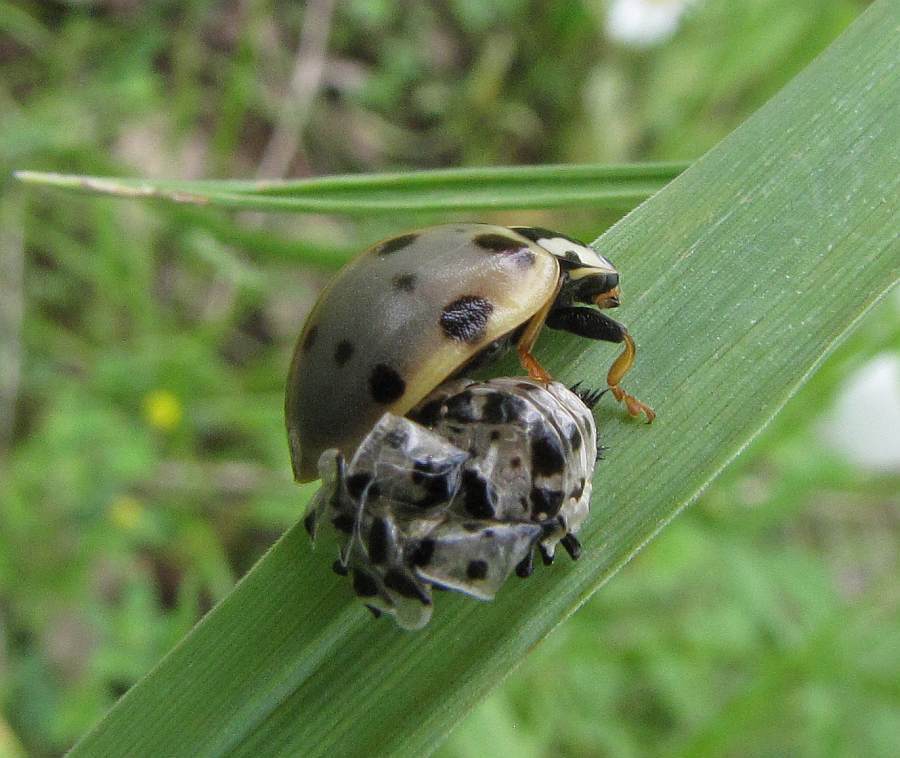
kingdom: Animalia
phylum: Arthropoda
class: Insecta
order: Coleoptera
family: Coccinellidae
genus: Anatis
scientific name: Anatis labiculata
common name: Fifteen-spotted lady beetle
